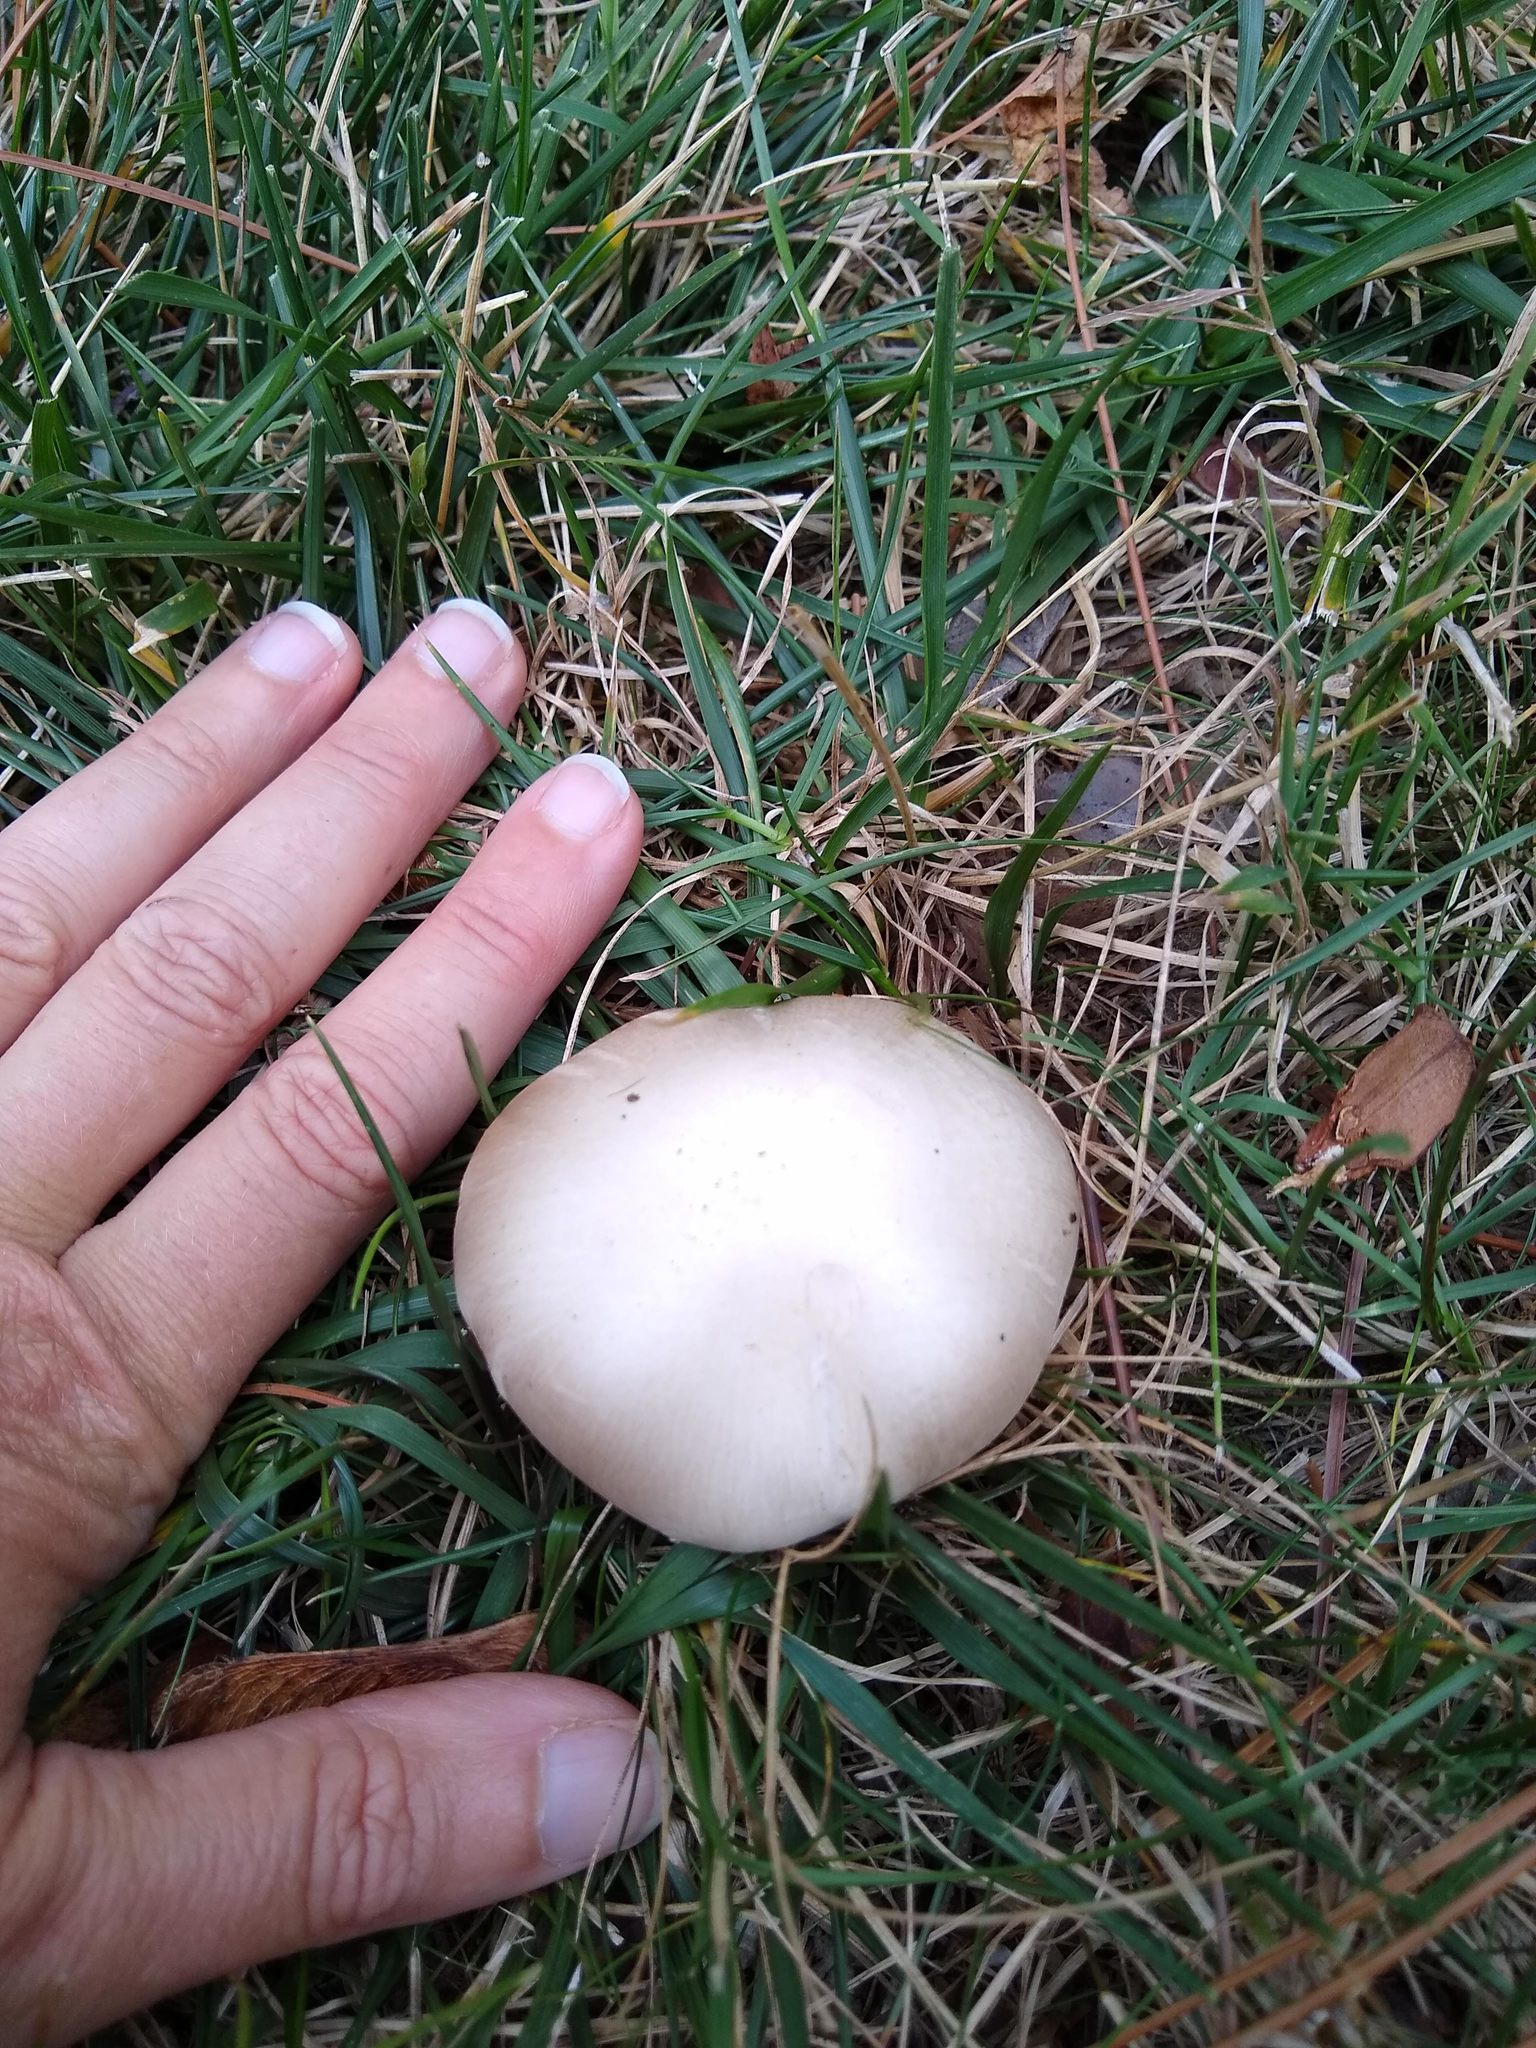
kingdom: Fungi
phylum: Basidiomycota
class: Agaricomycetes
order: Agaricales
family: Agaricaceae
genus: Agaricus
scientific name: Agaricus campestris
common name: Field mushroom
